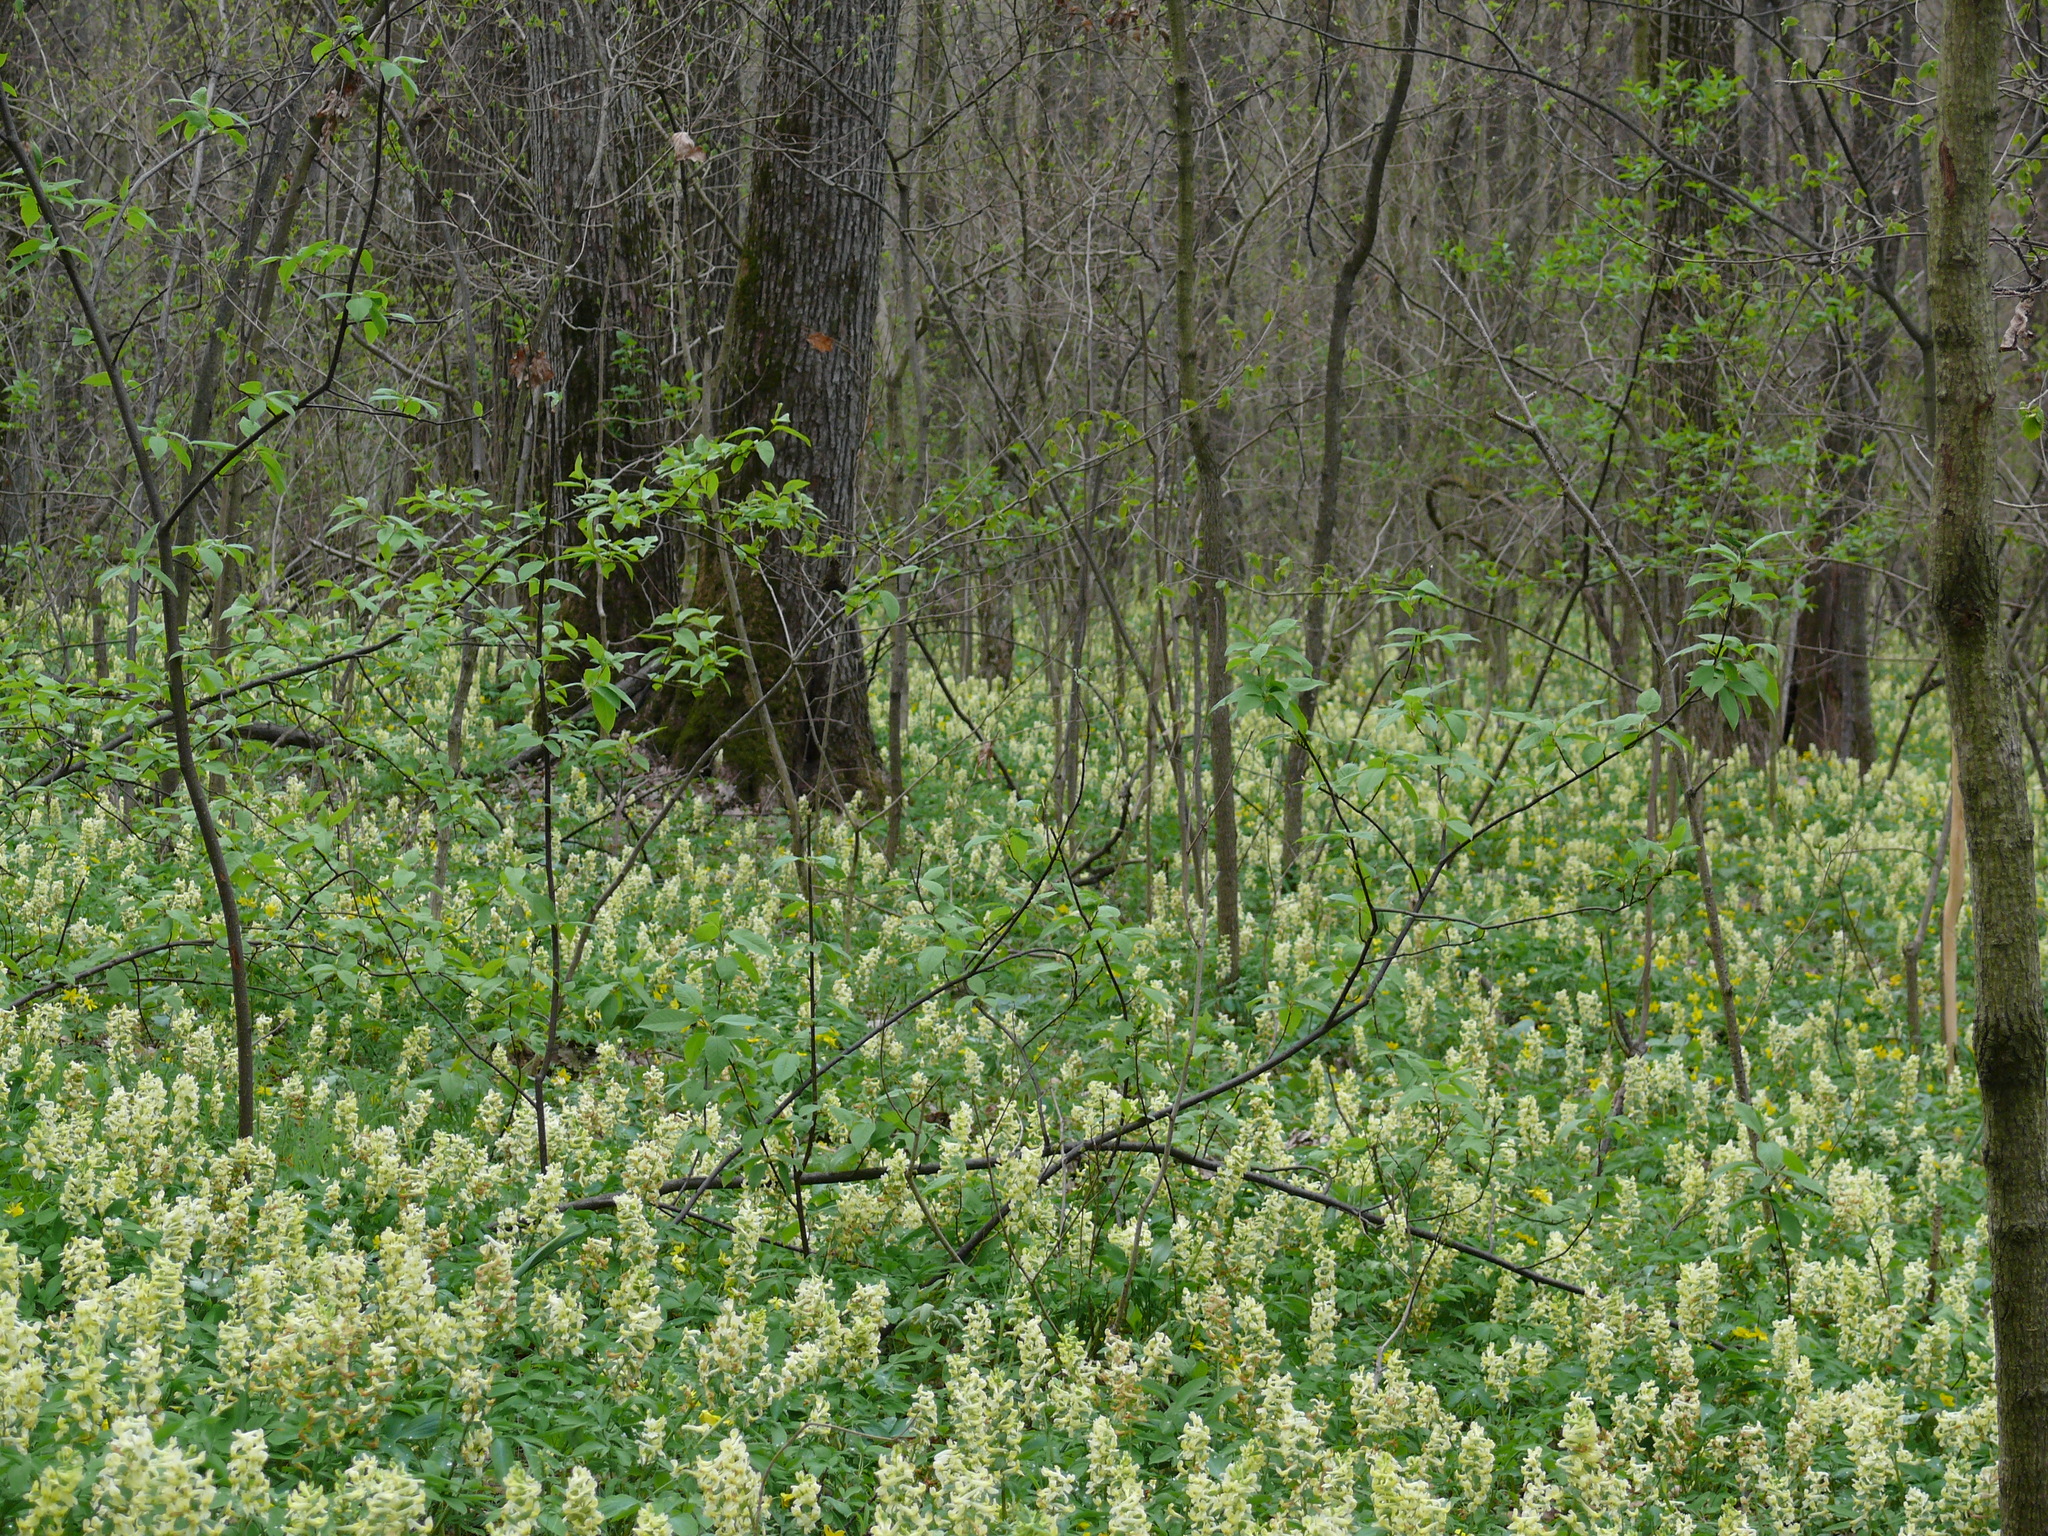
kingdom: Plantae
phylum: Tracheophyta
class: Magnoliopsida
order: Ranunculales
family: Papaveraceae
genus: Corydalis
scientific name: Corydalis cava
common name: Hollowroot
